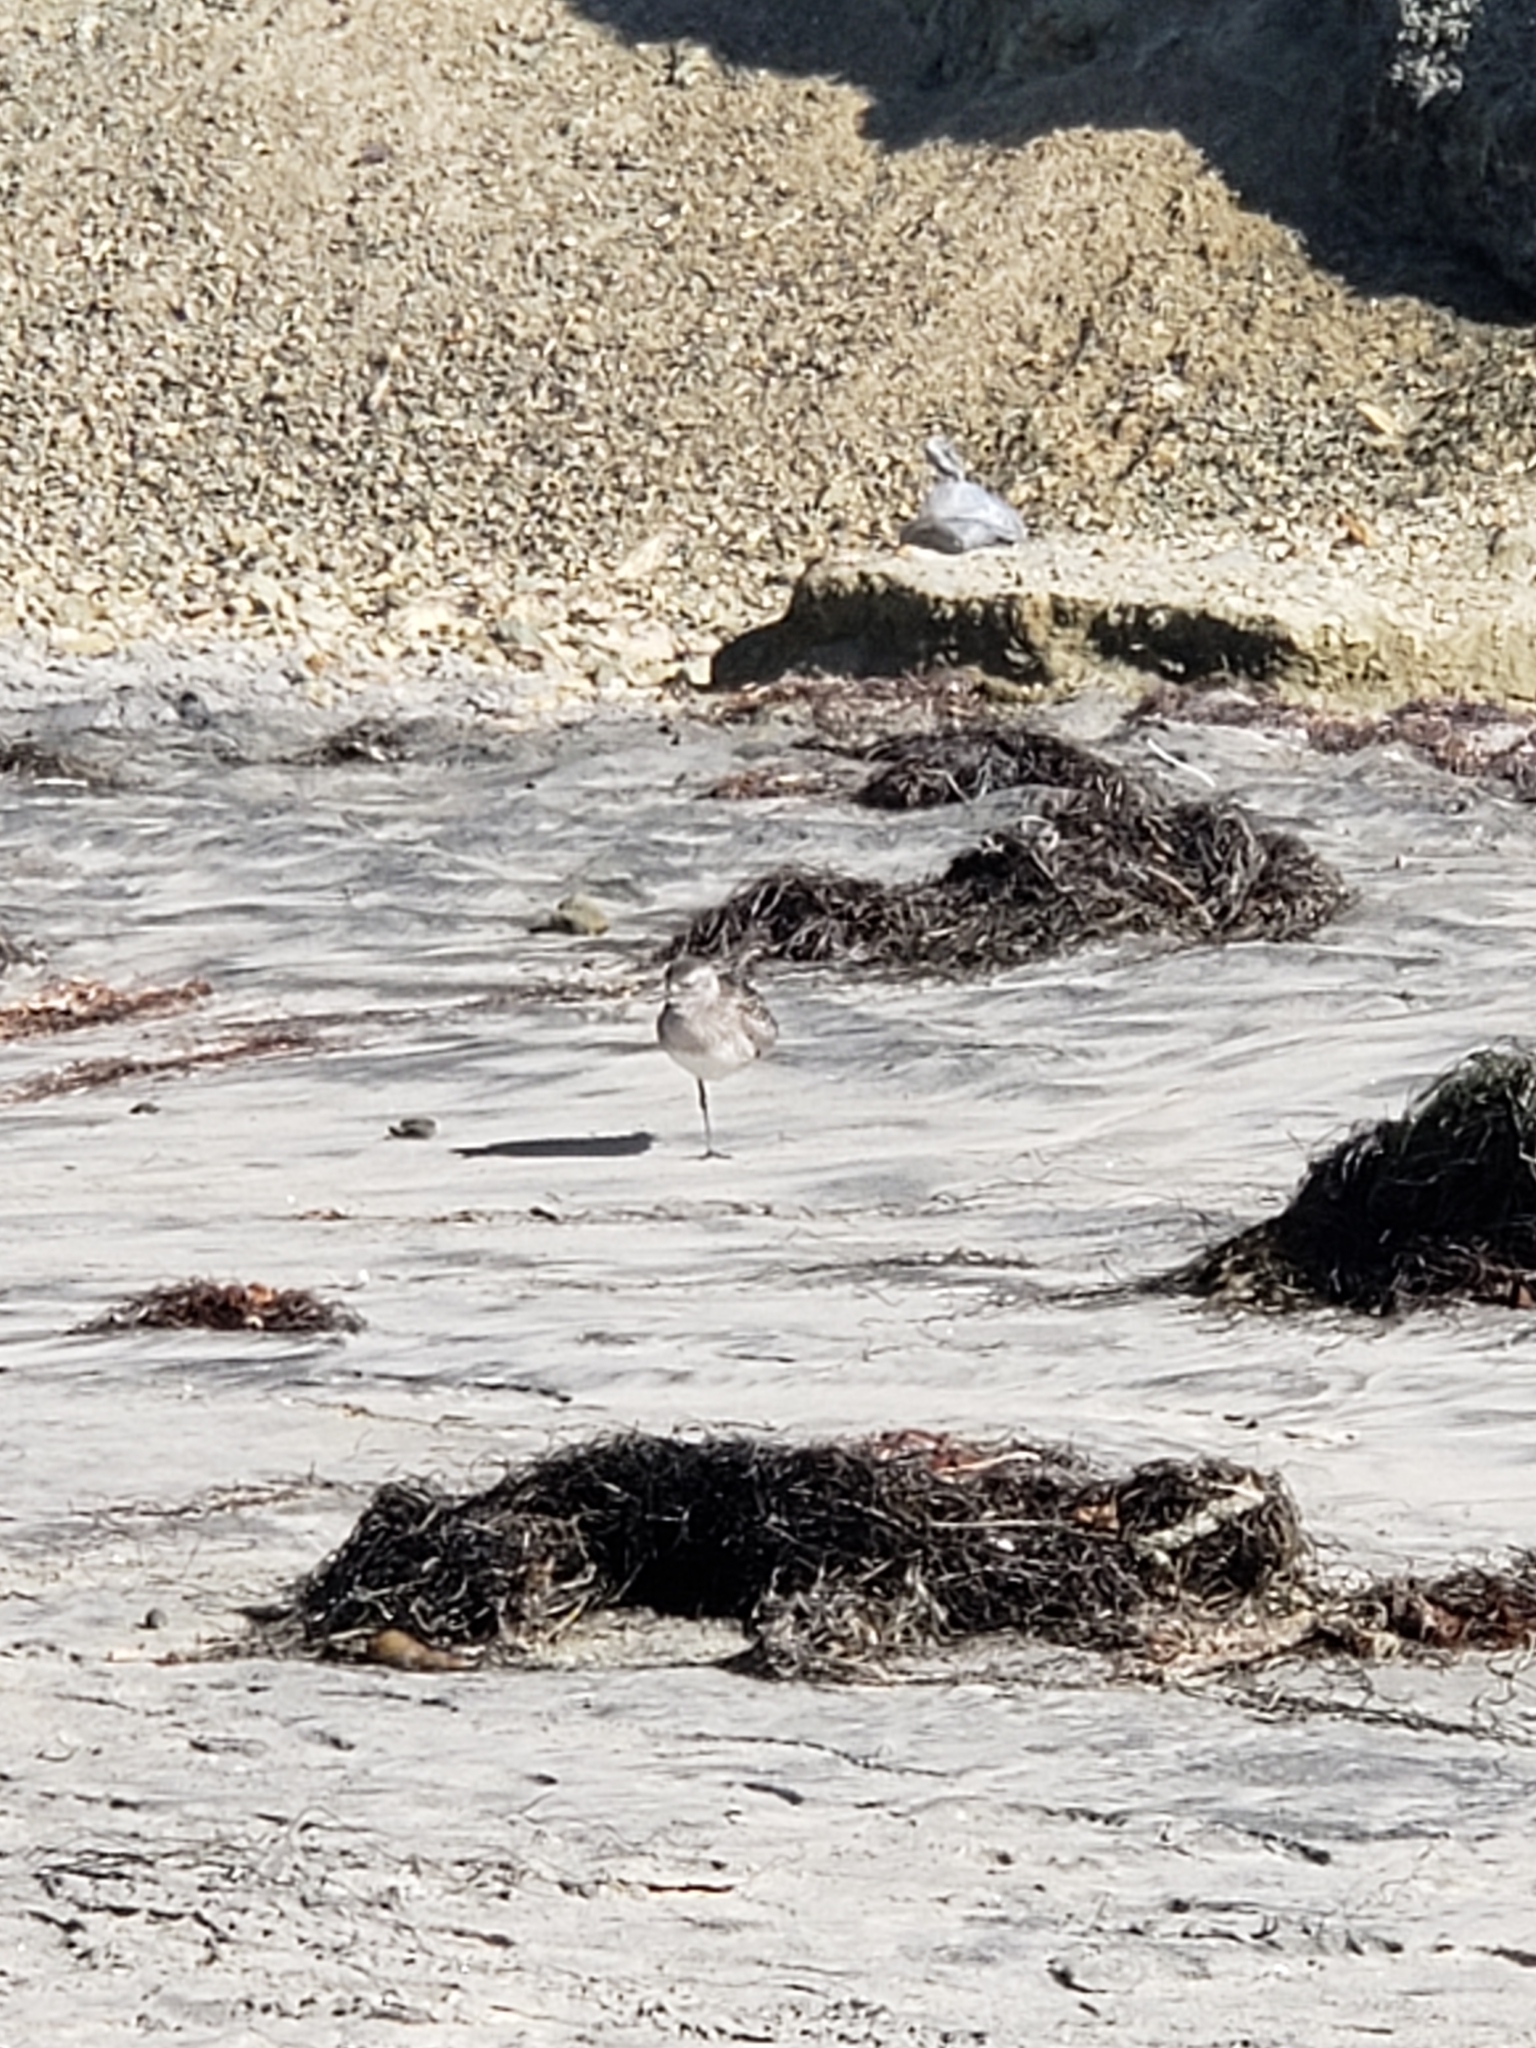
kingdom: Animalia
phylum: Chordata
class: Aves
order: Charadriiformes
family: Charadriidae
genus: Pluvialis
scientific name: Pluvialis squatarola
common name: Grey plover
